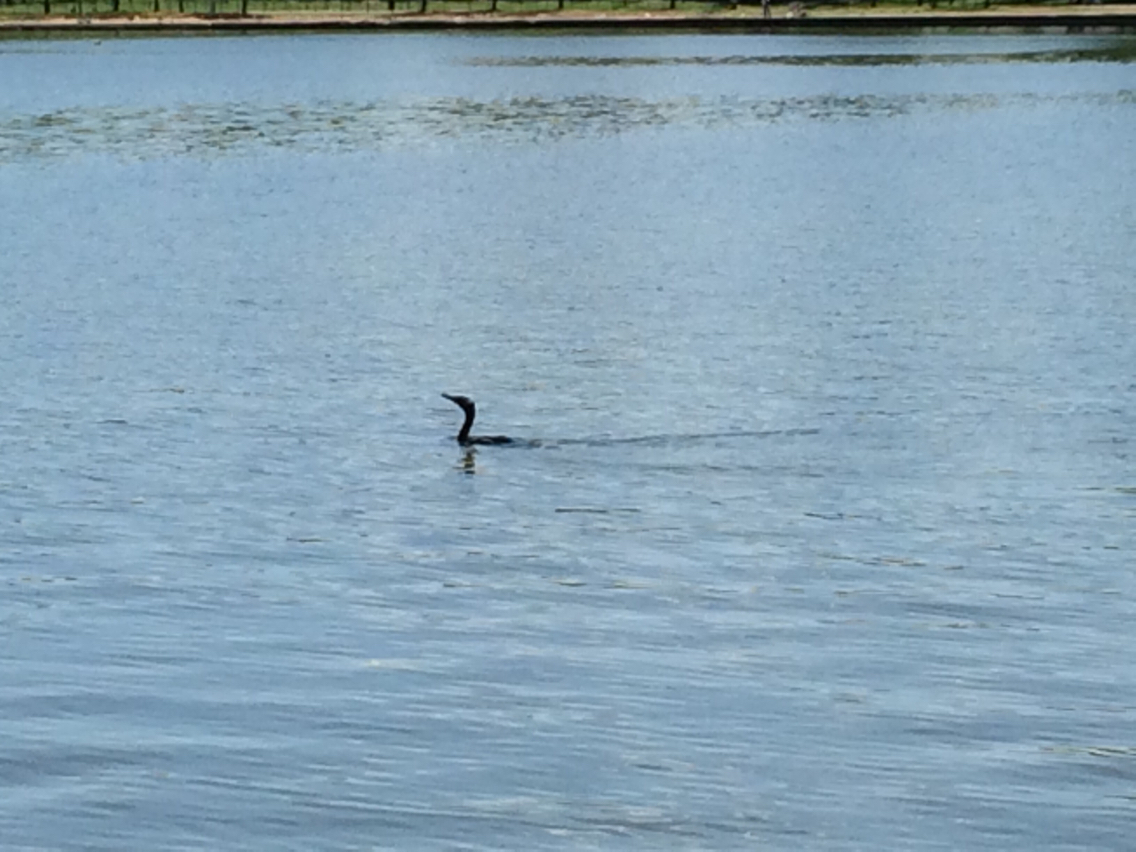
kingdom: Animalia
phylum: Chordata
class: Aves
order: Suliformes
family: Phalacrocoracidae
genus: Phalacrocorax
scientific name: Phalacrocorax auritus
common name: Double-crested cormorant
